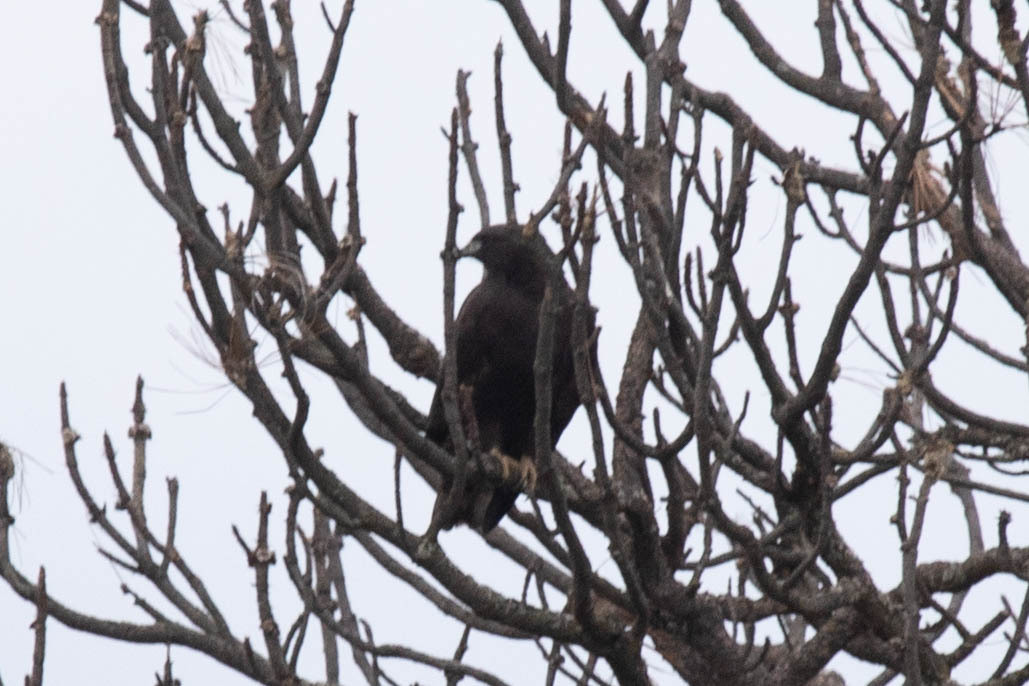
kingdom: Animalia
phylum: Chordata
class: Aves
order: Accipitriformes
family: Accipitridae
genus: Buteo
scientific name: Buteo jamaicensis
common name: Red-tailed hawk
